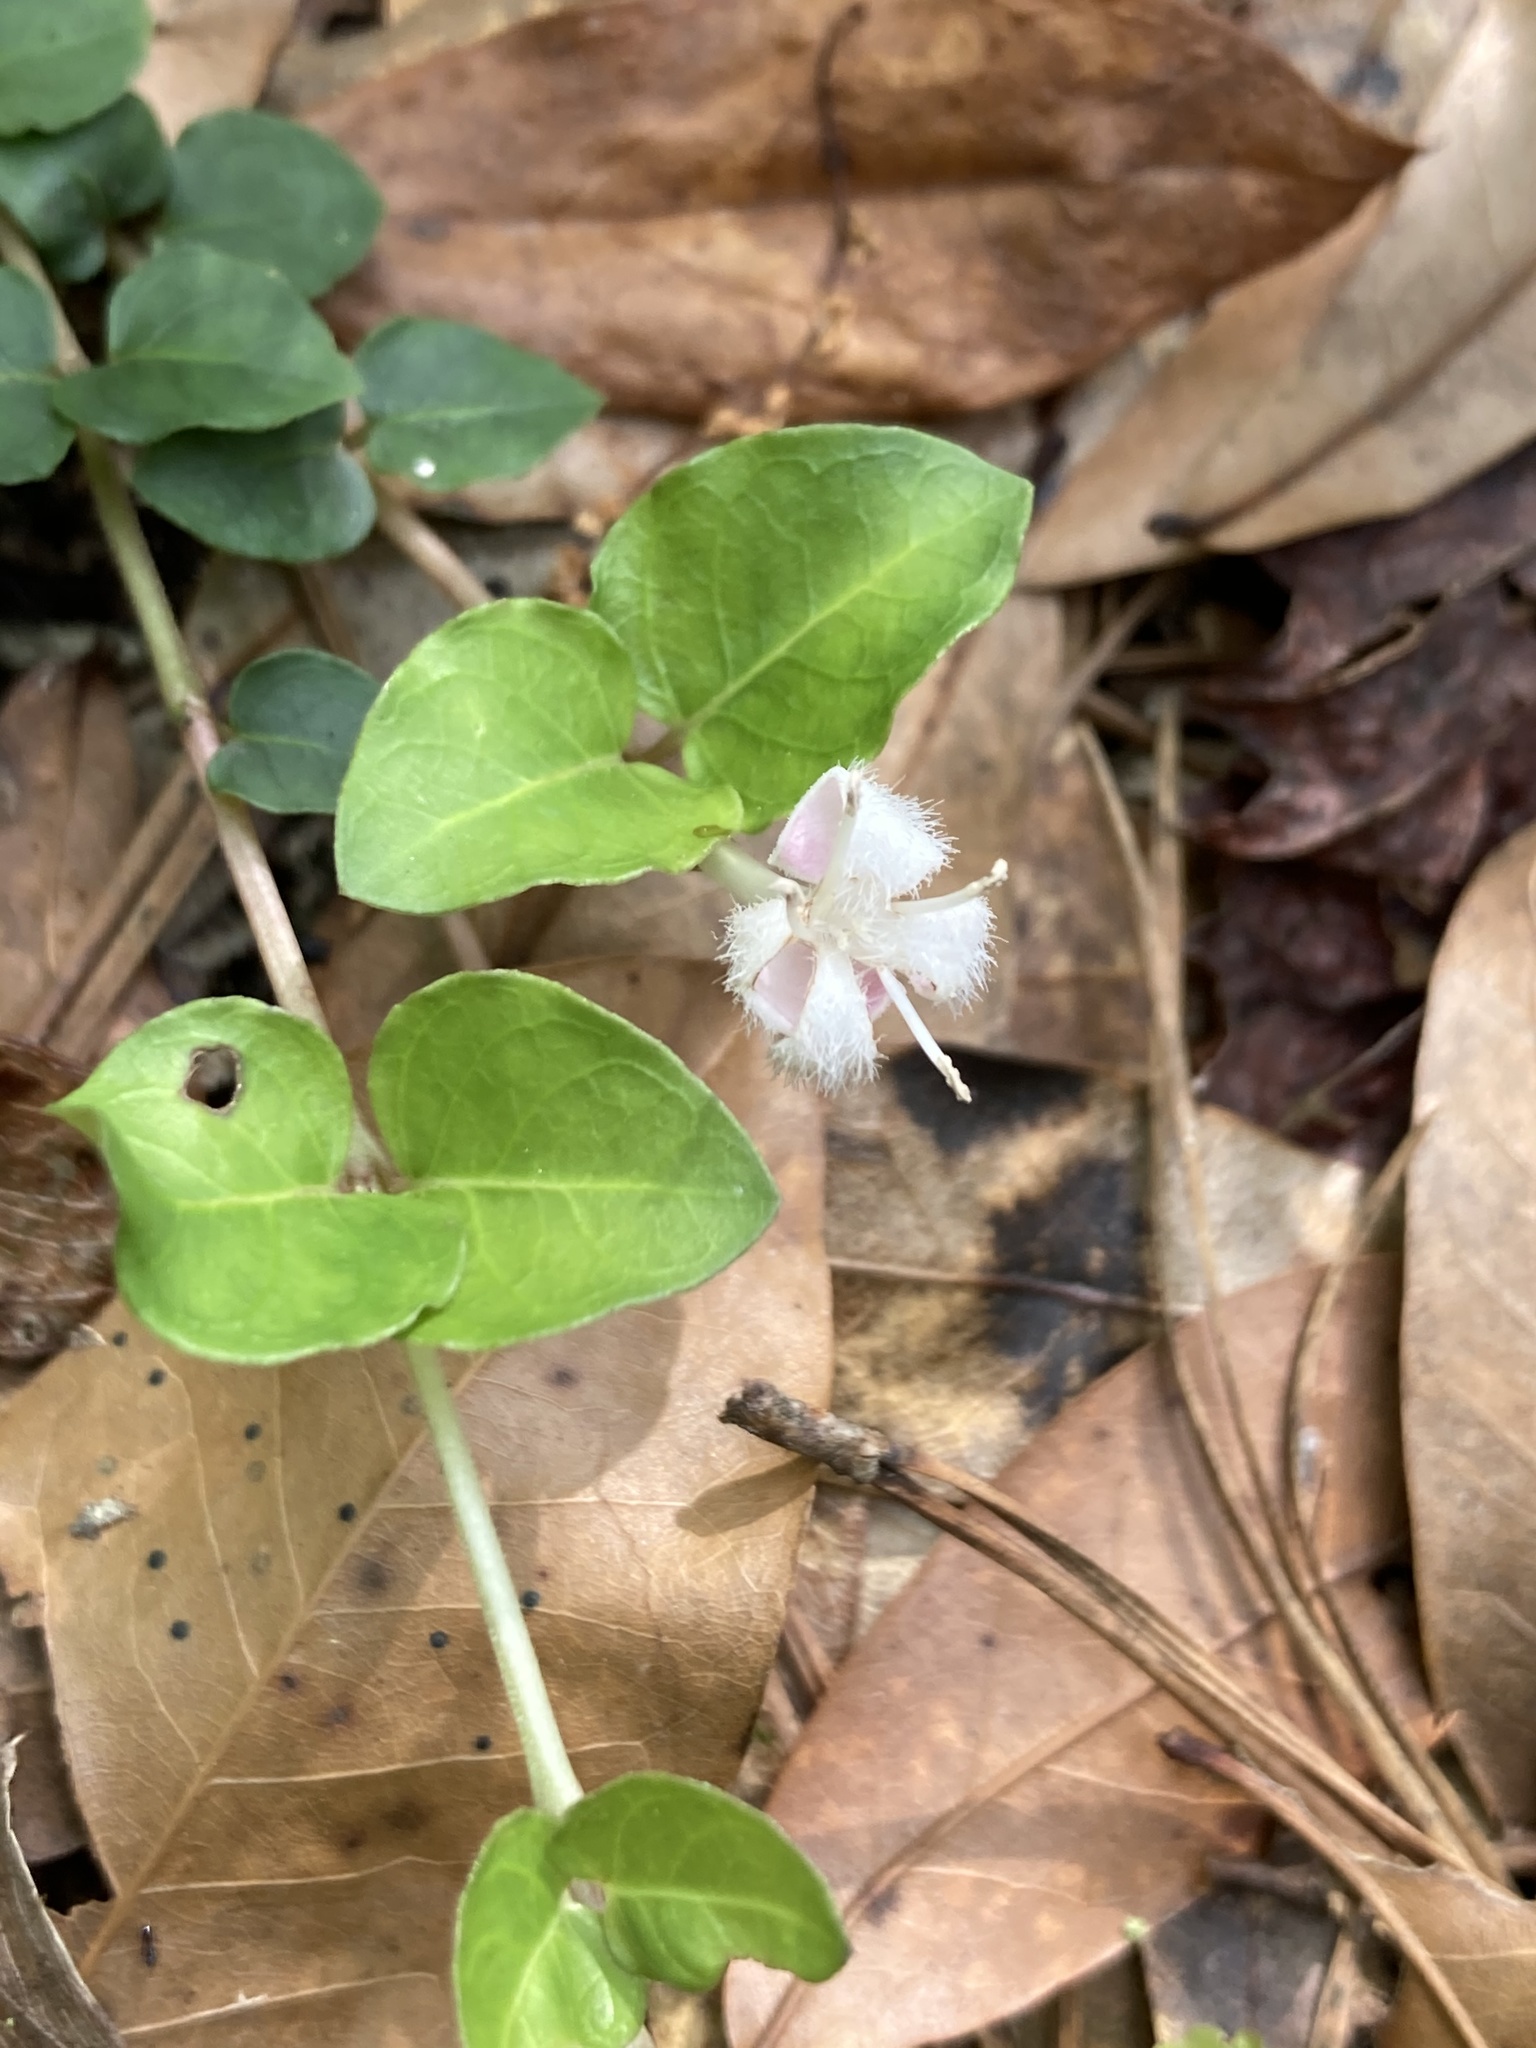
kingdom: Plantae
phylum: Tracheophyta
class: Magnoliopsida
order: Gentianales
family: Rubiaceae
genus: Mitchella
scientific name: Mitchella repens
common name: Partridge-berry
